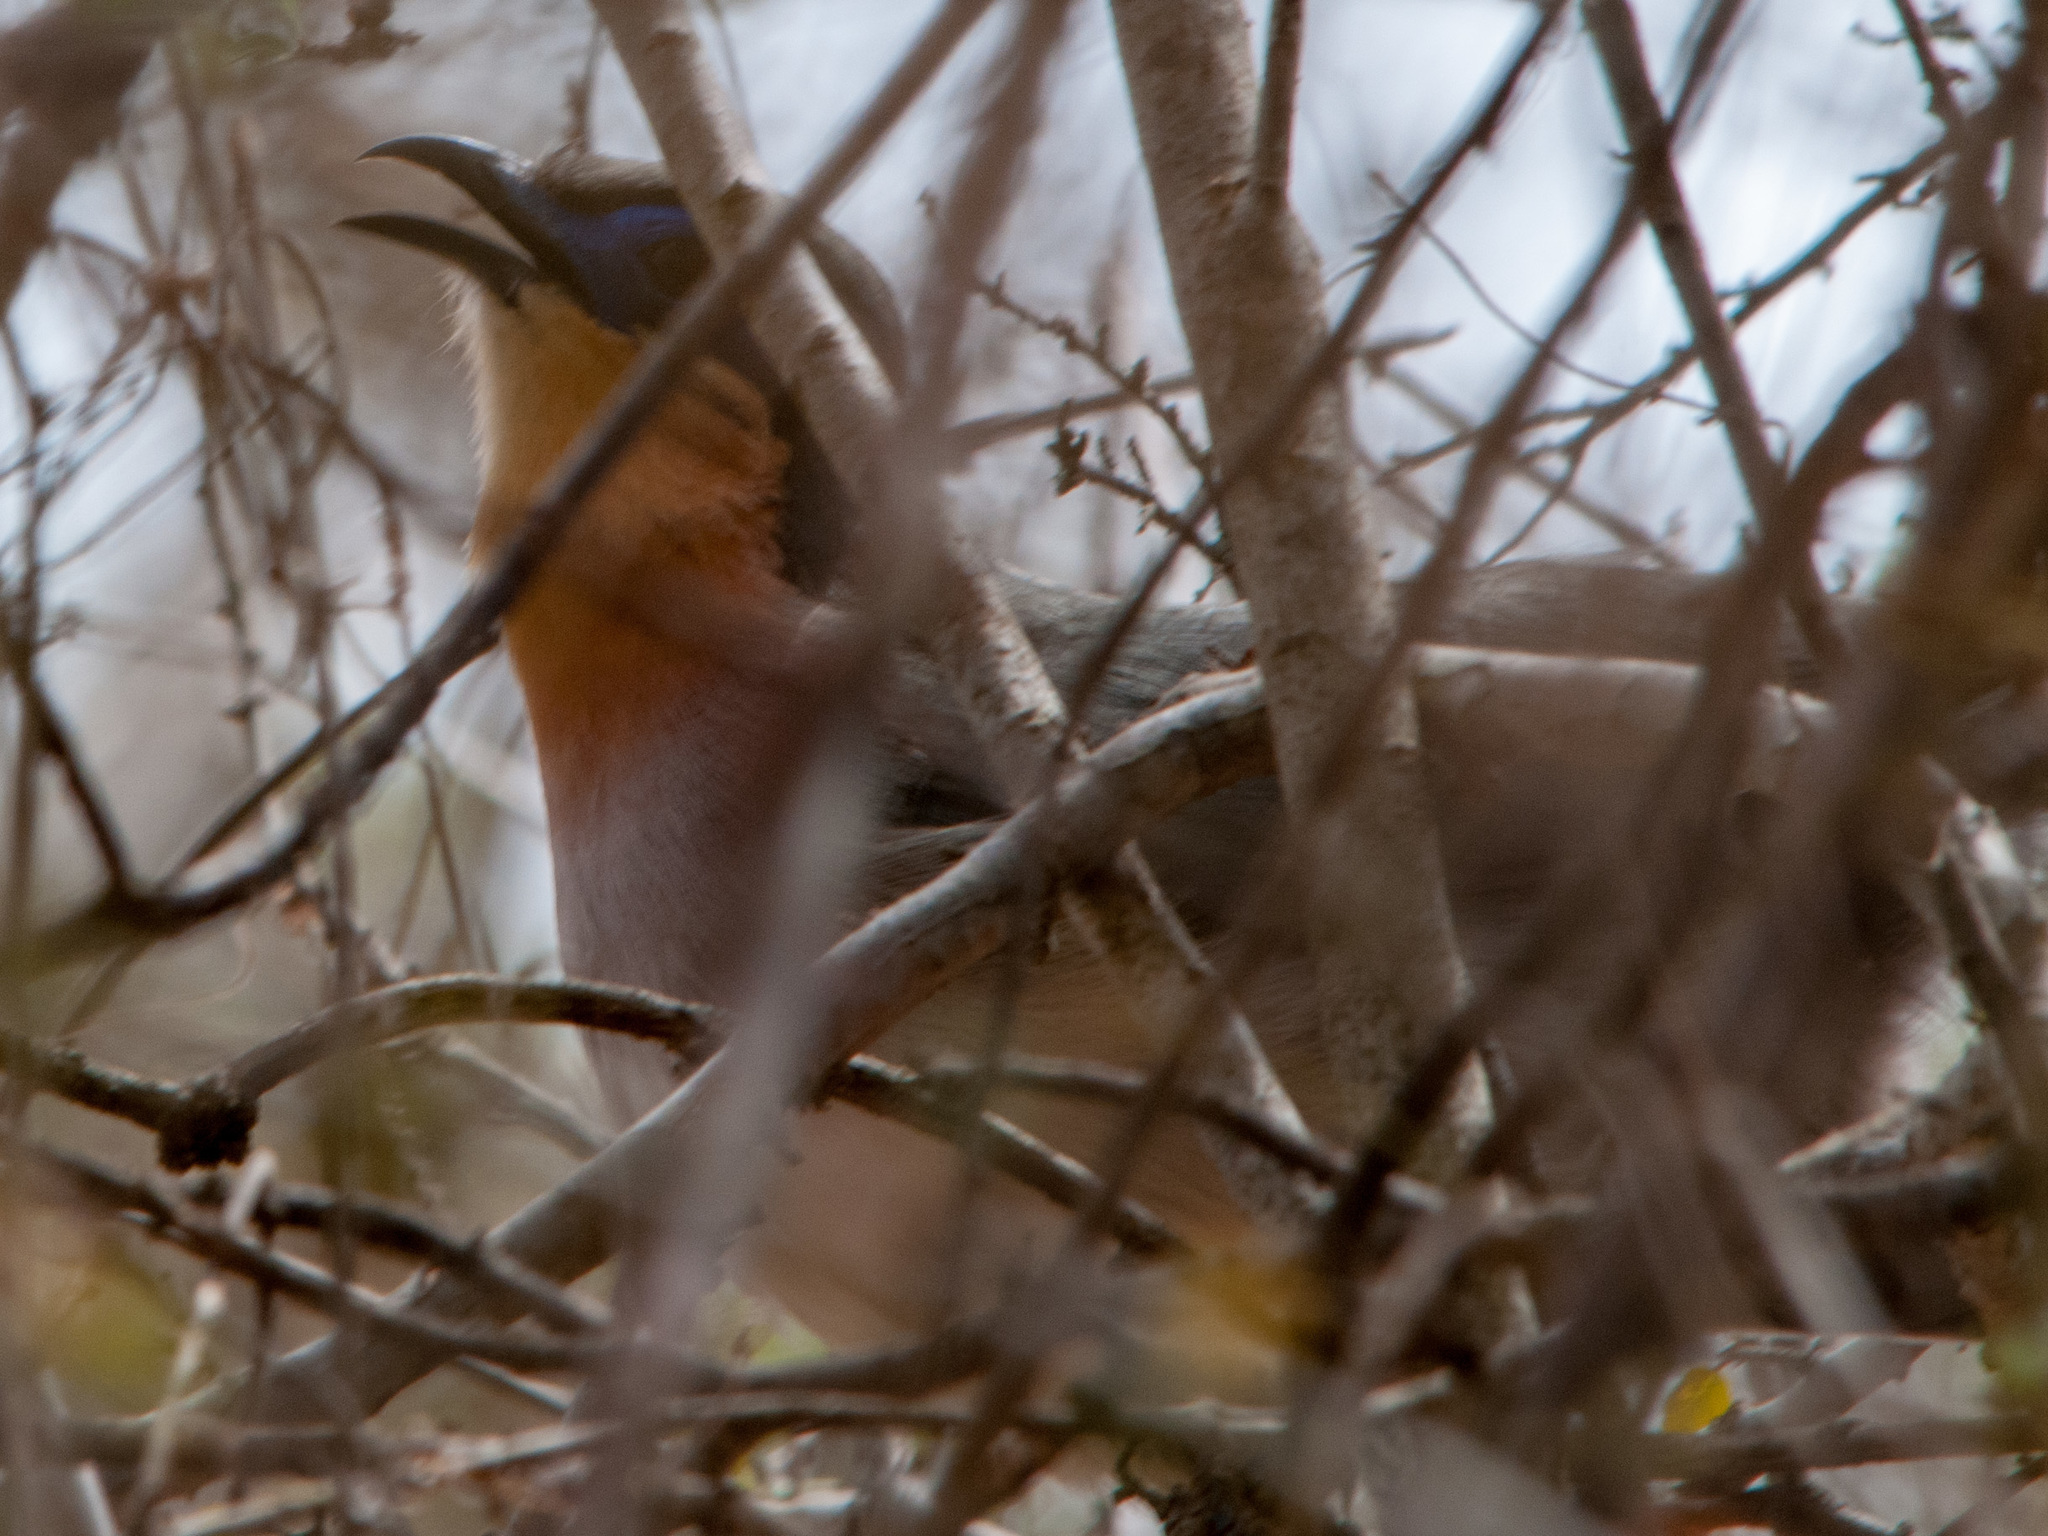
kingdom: Animalia
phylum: Chordata
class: Aves
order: Cuculiformes
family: Cuculidae
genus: Coua
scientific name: Coua cursor
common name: Running coua
